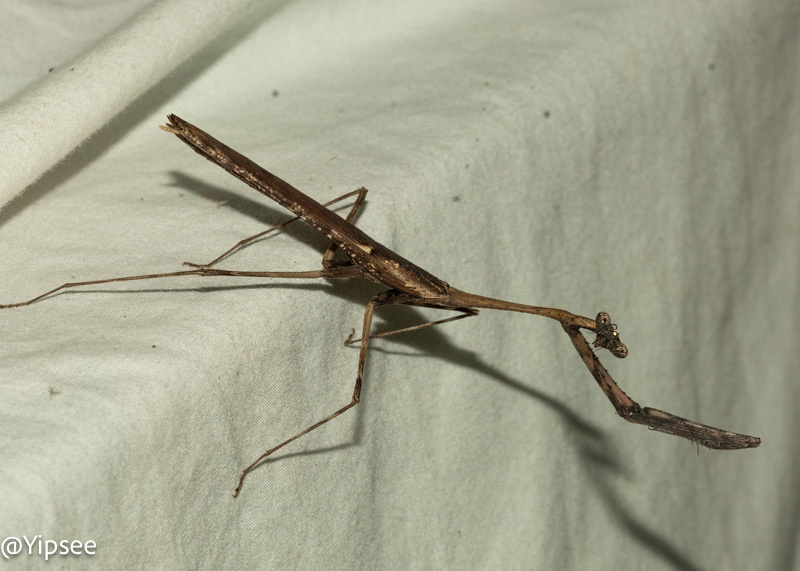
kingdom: Animalia
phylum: Arthropoda
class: Insecta
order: Mantodea
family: Deroplatyidae
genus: Pseudempusa
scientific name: Pseudempusa pinnapavonis
